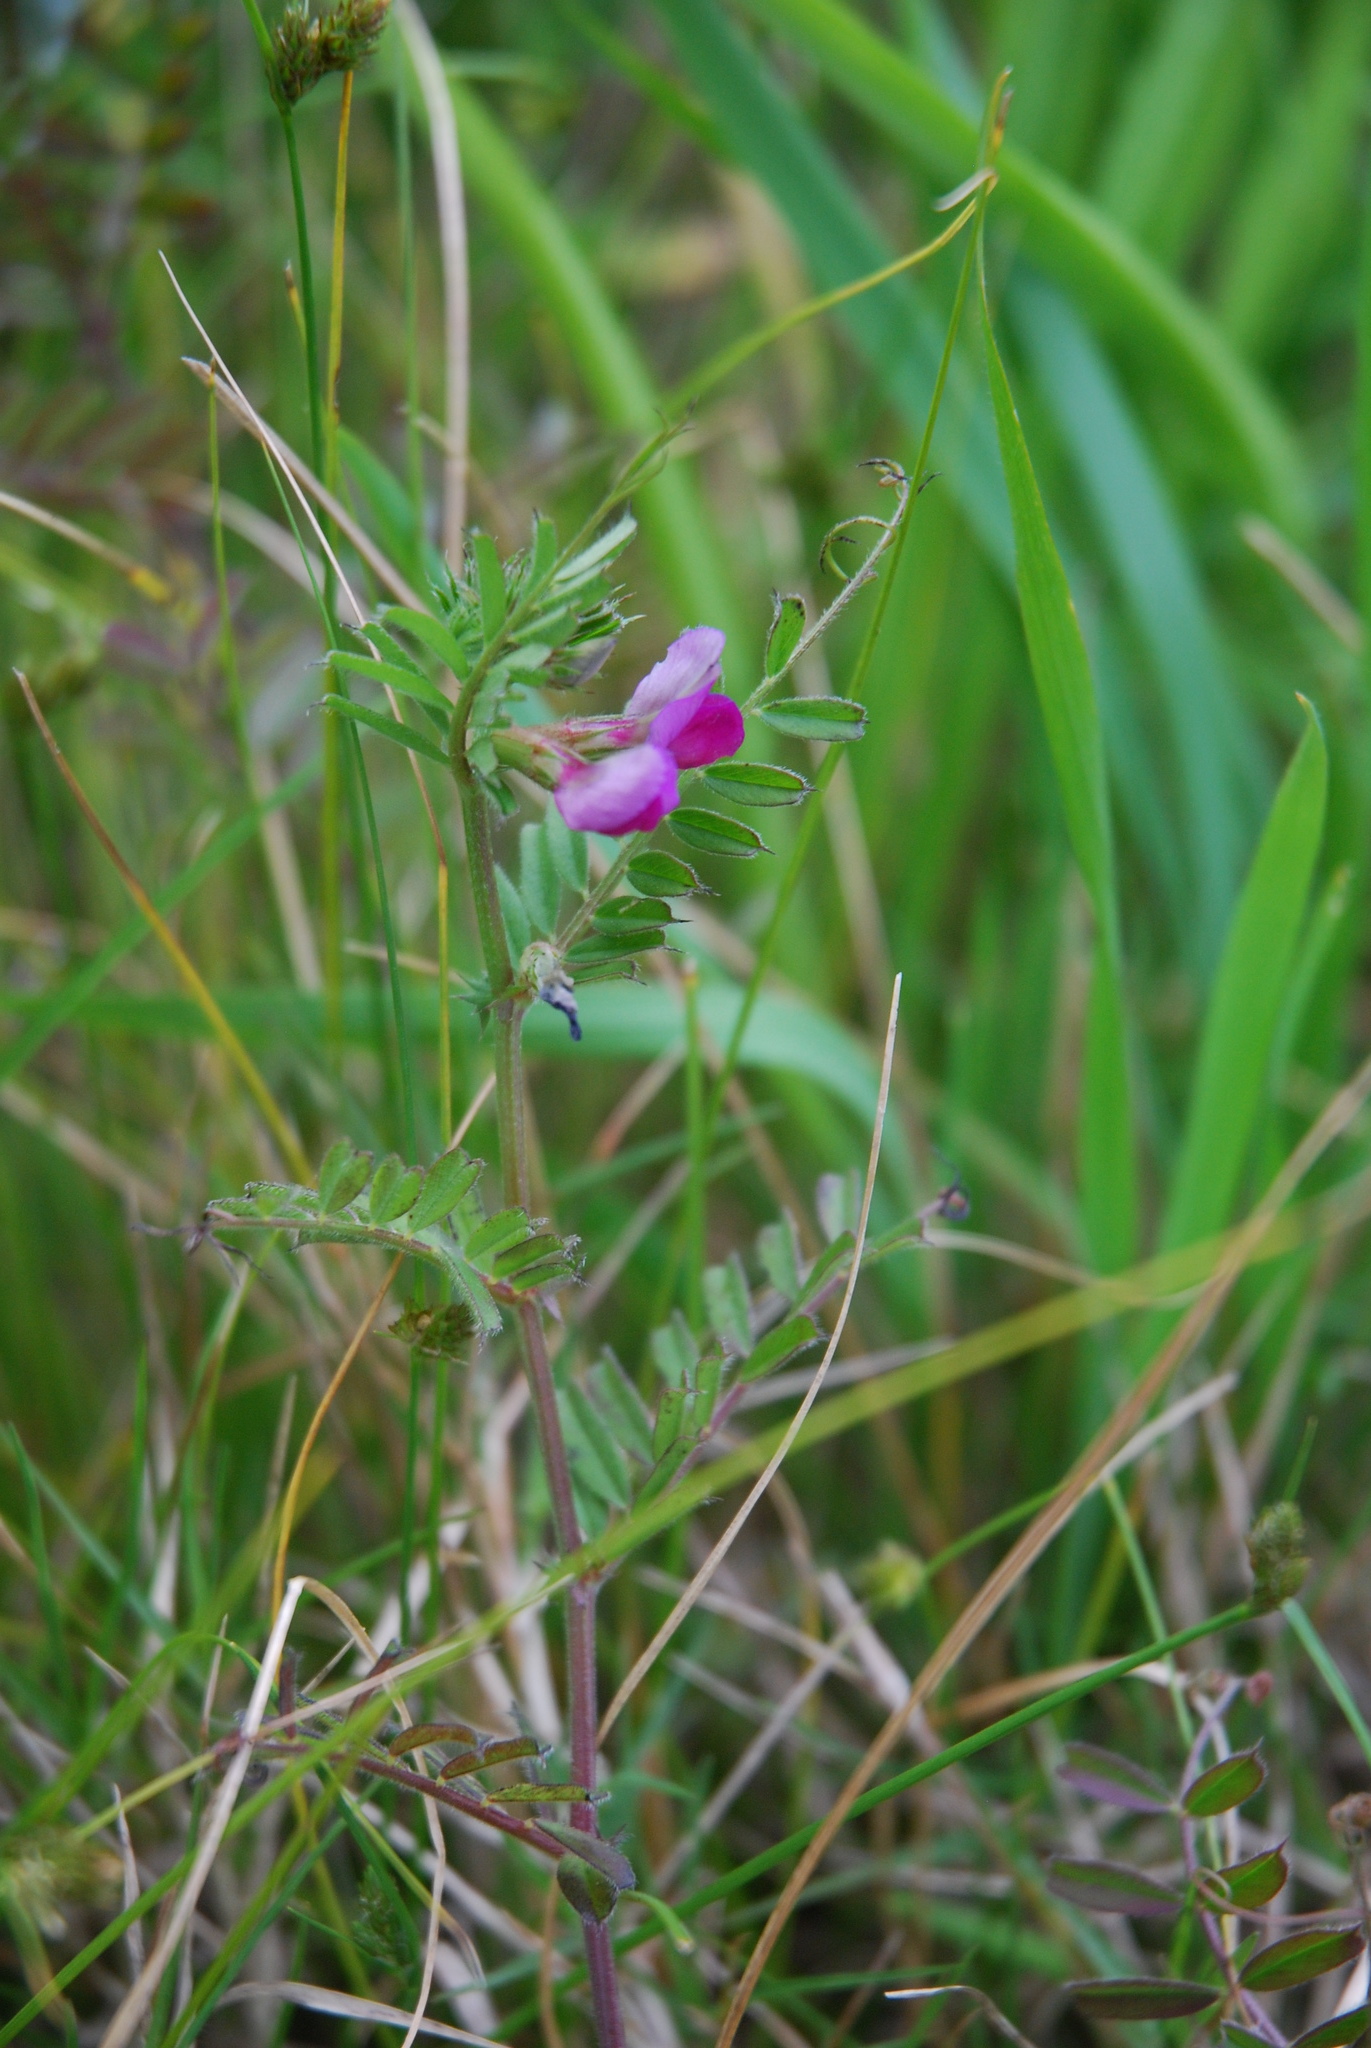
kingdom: Plantae
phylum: Tracheophyta
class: Magnoliopsida
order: Fabales
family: Fabaceae
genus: Vicia
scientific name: Vicia sativa
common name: Garden vetch
